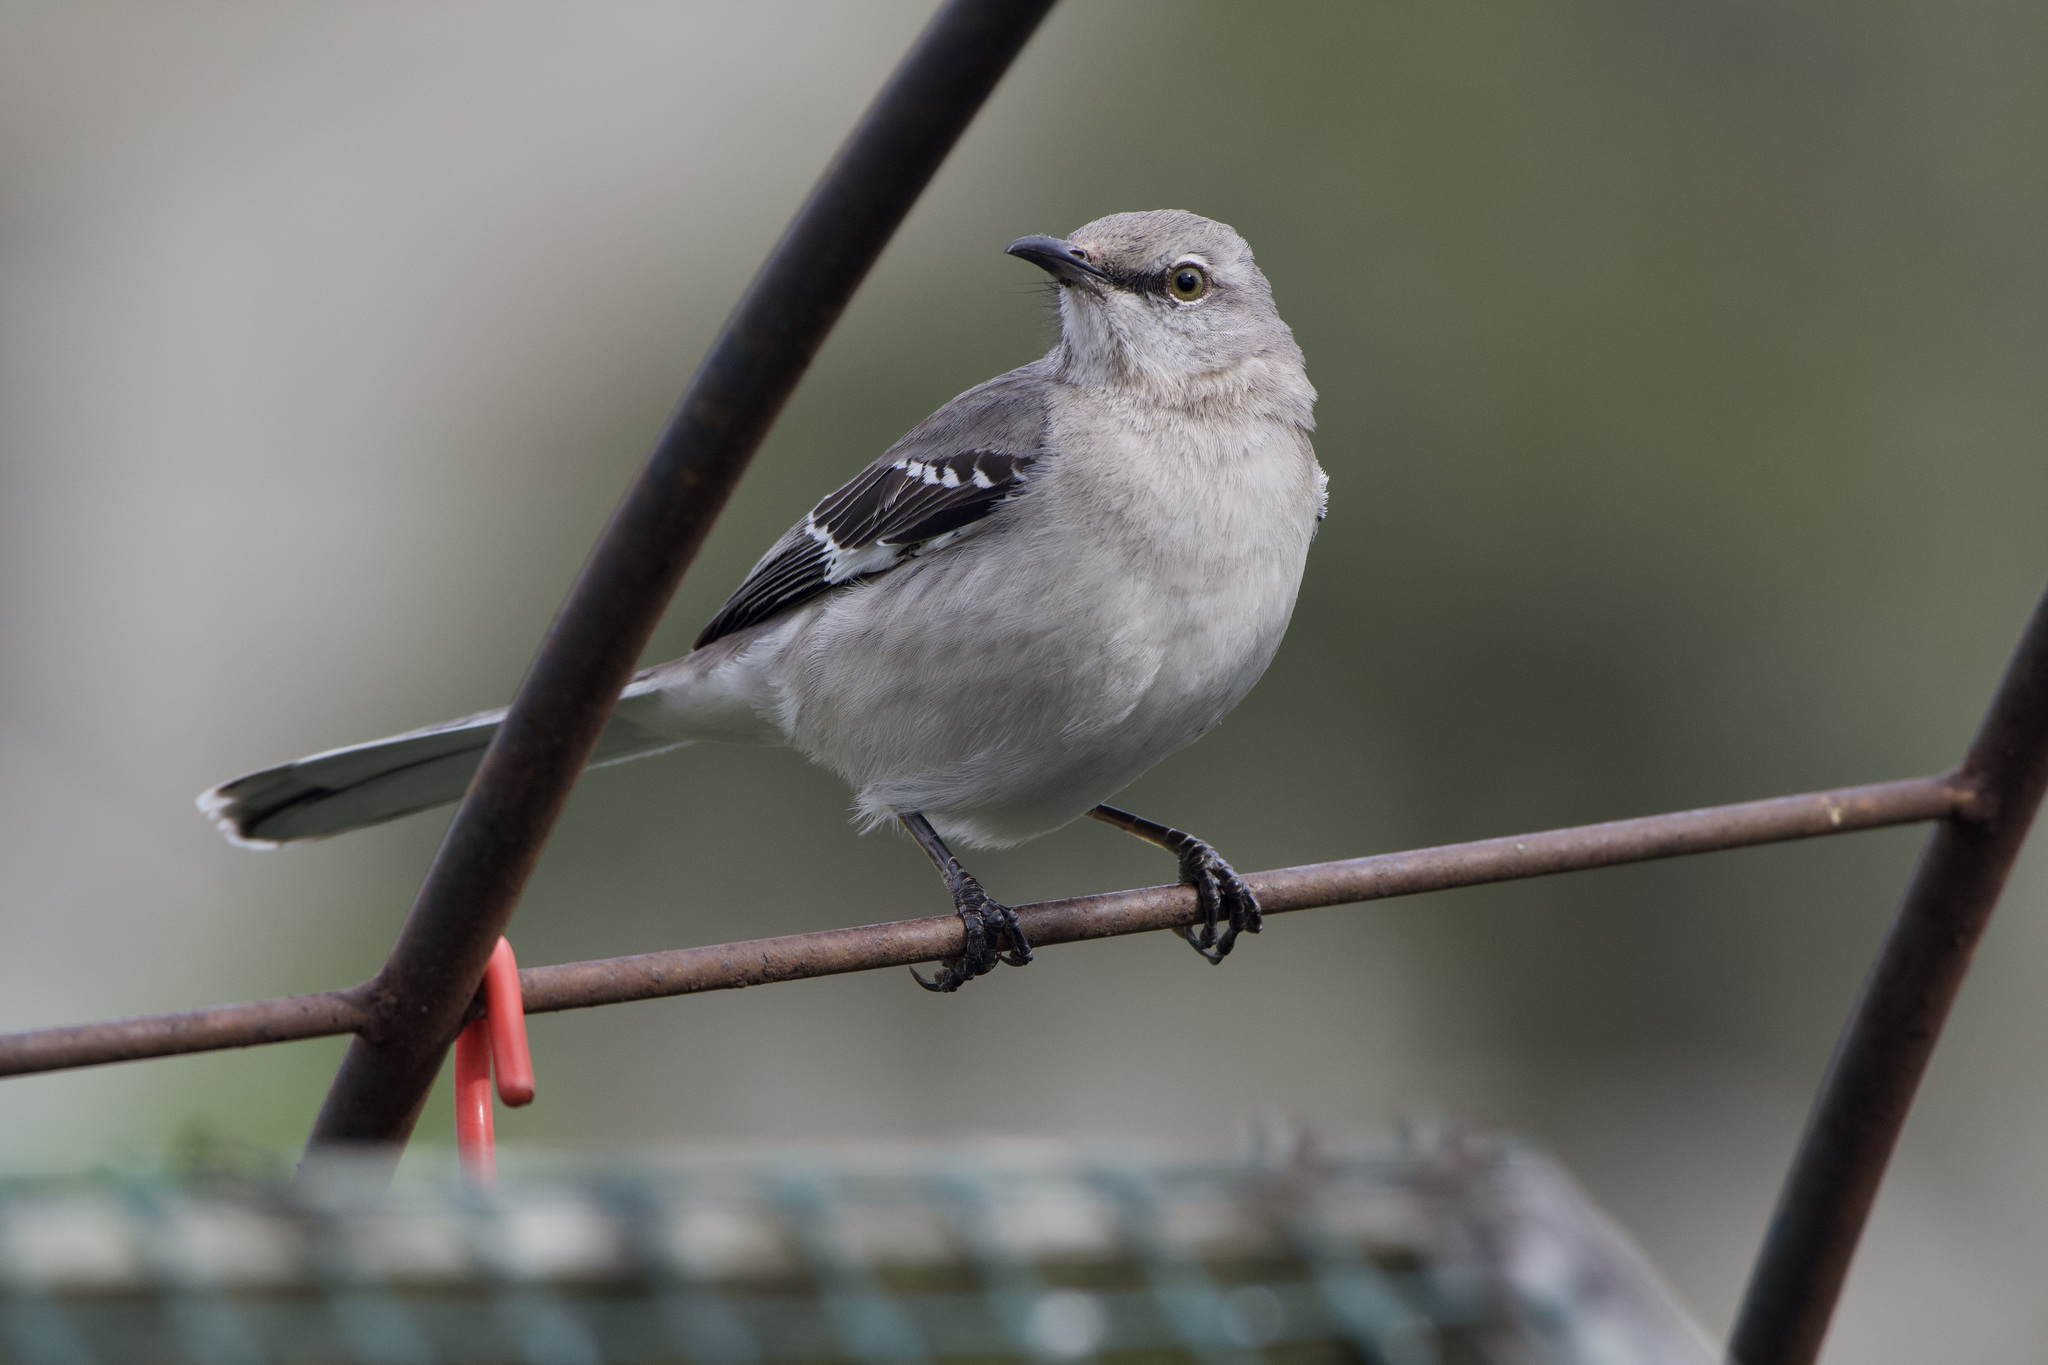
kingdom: Animalia
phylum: Chordata
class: Aves
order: Passeriformes
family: Mimidae
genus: Mimus
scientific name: Mimus polyglottos
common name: Northern mockingbird
